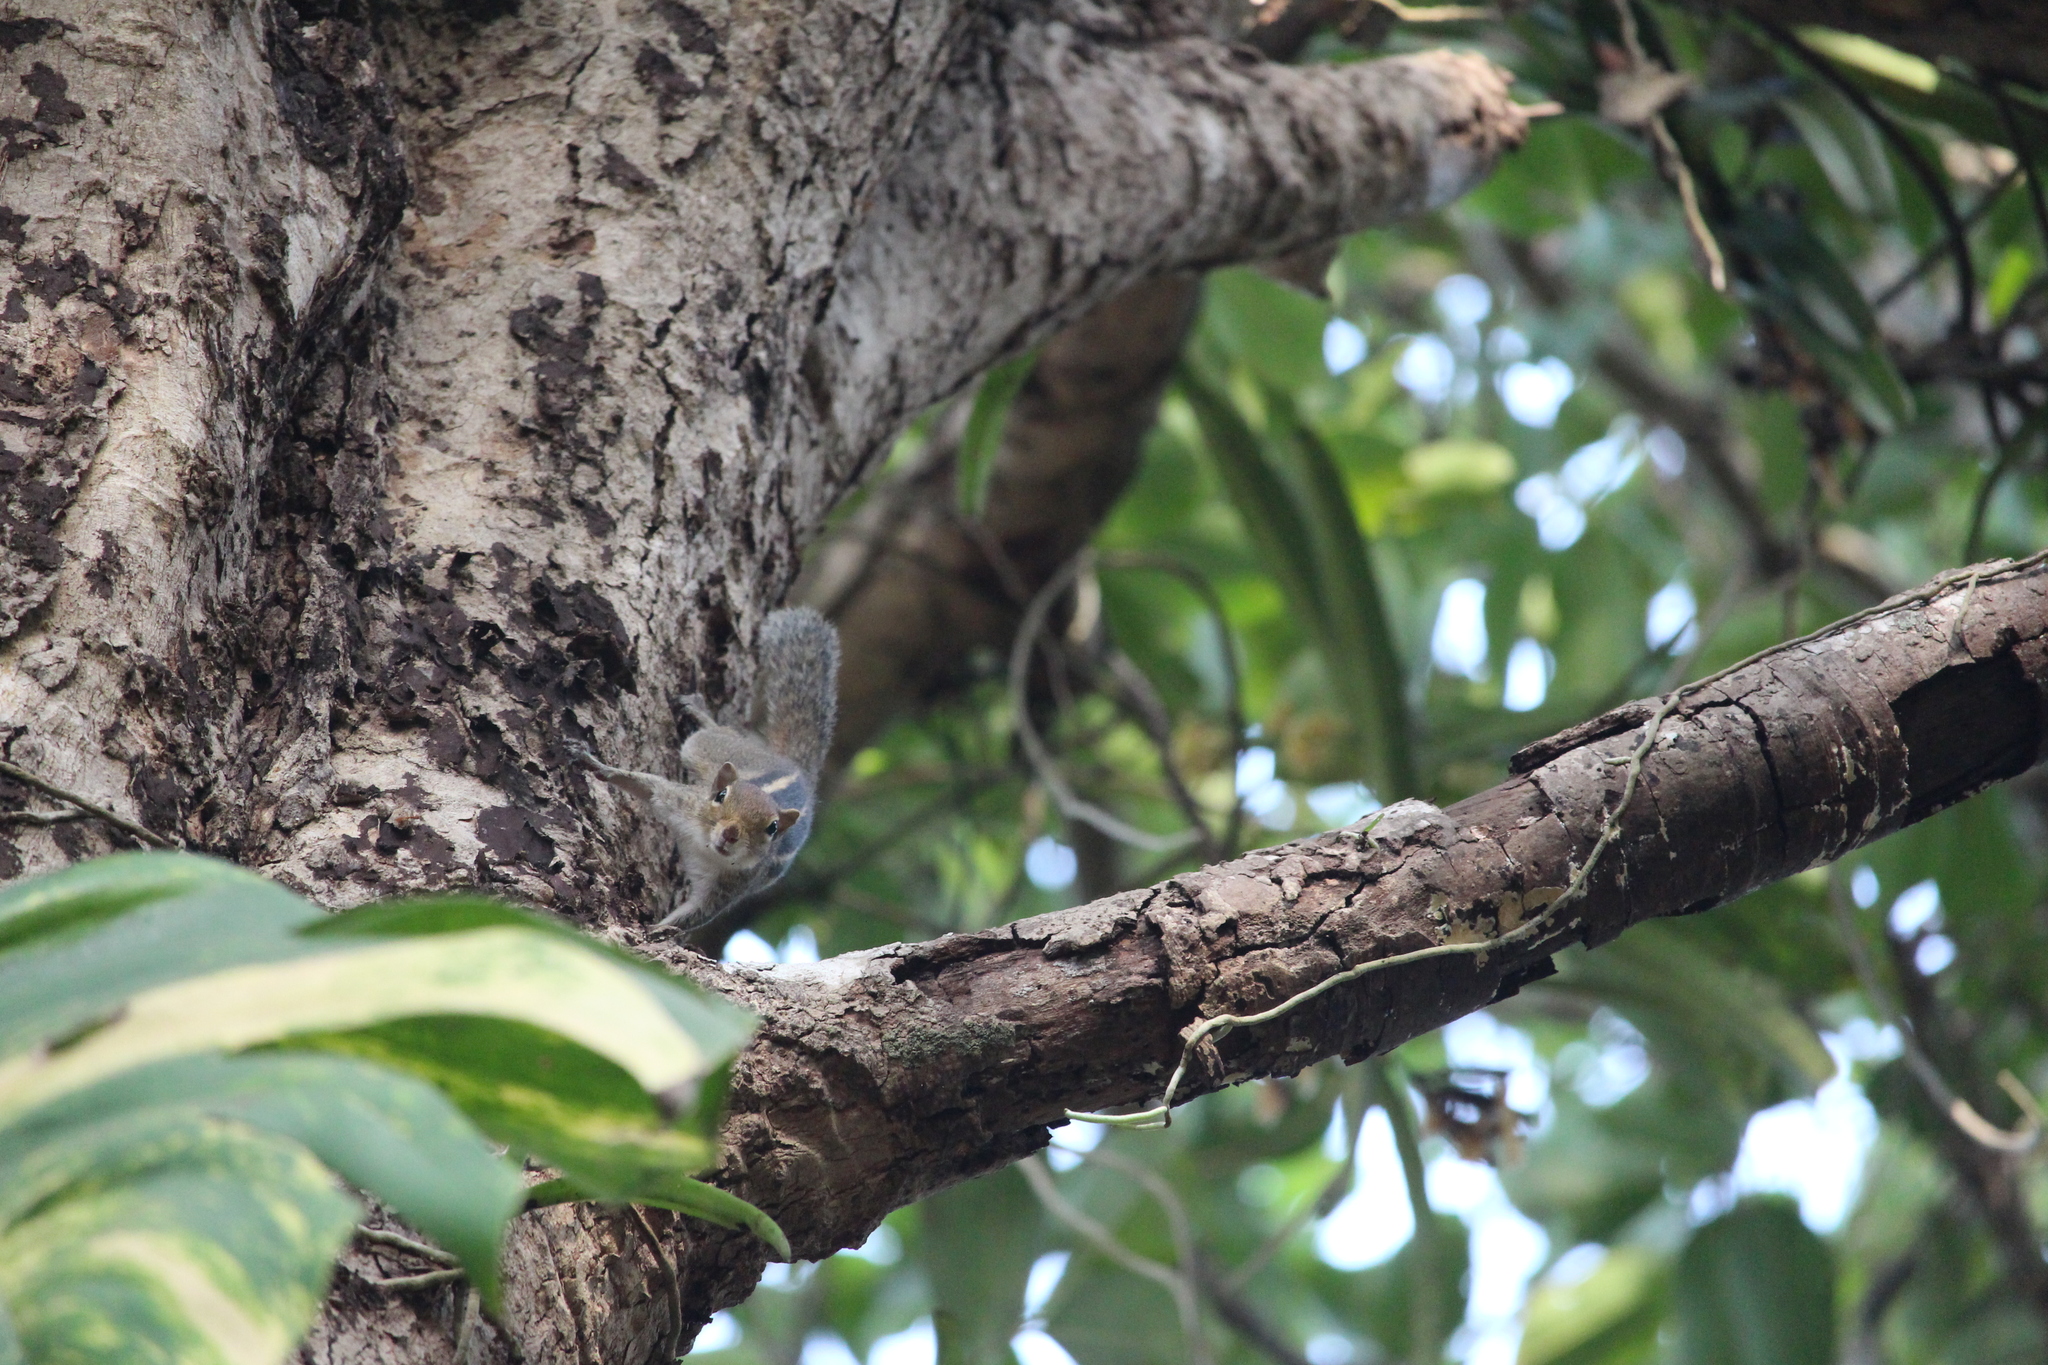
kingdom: Animalia
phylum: Chordata
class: Mammalia
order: Rodentia
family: Sciuridae
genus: Funambulus
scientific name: Funambulus palmarum
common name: Indian palm squirrel
